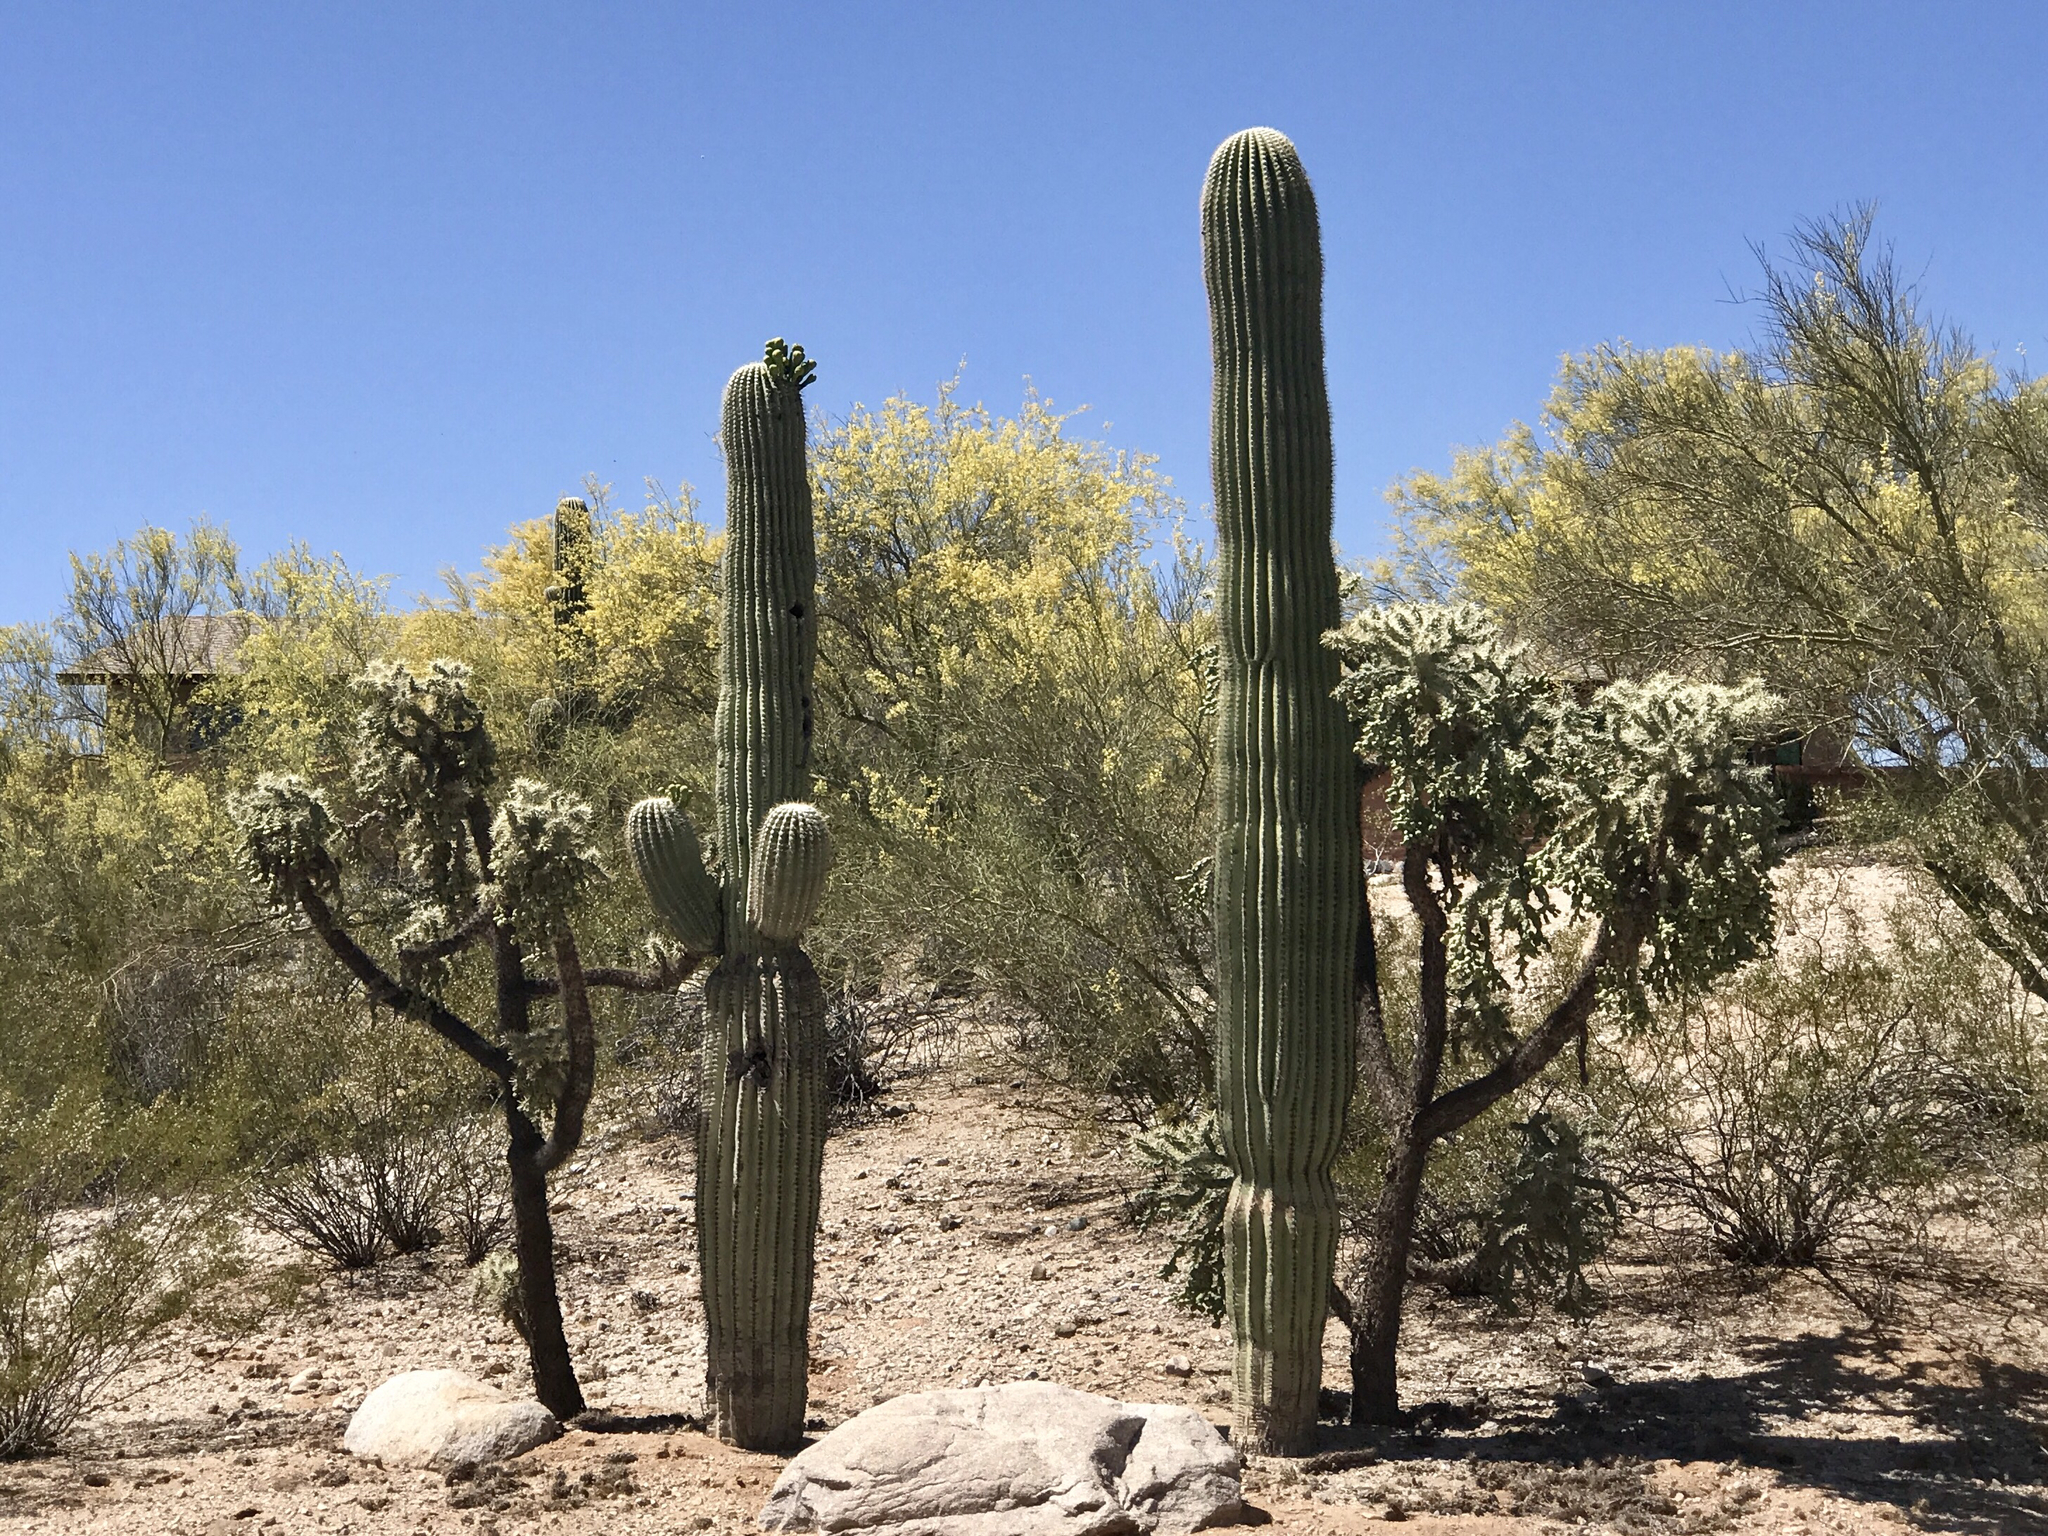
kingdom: Plantae
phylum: Tracheophyta
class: Magnoliopsida
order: Caryophyllales
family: Cactaceae
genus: Carnegiea
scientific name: Carnegiea gigantea
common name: Saguaro
